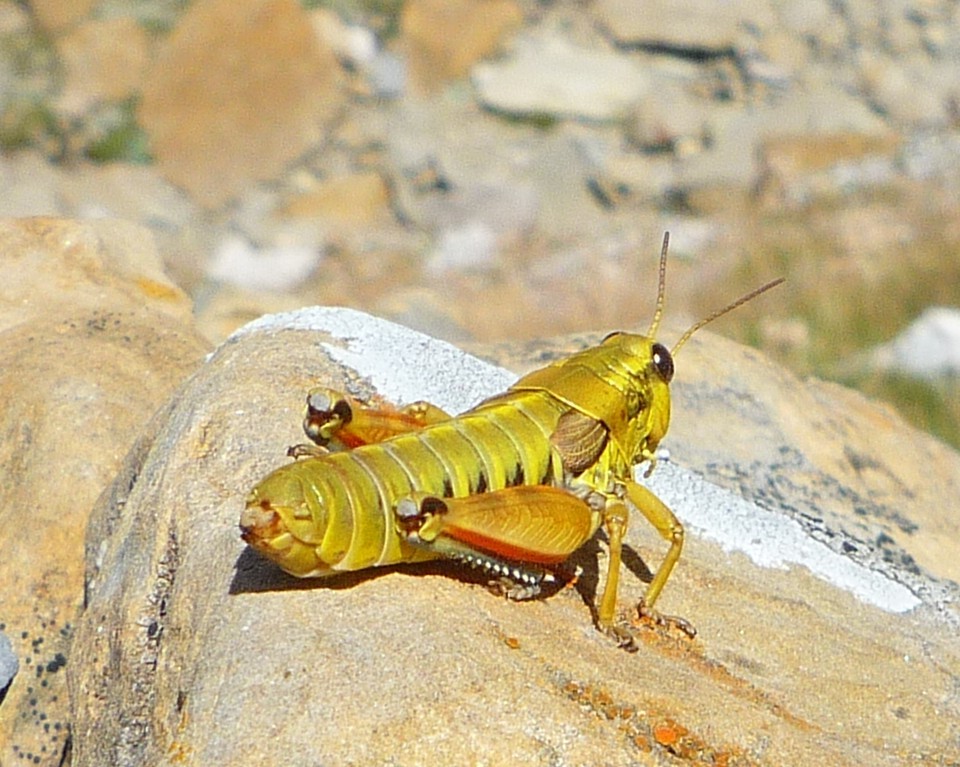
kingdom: Animalia
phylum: Arthropoda
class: Insecta
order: Orthoptera
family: Acrididae
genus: Podisma
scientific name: Podisma pedestris
